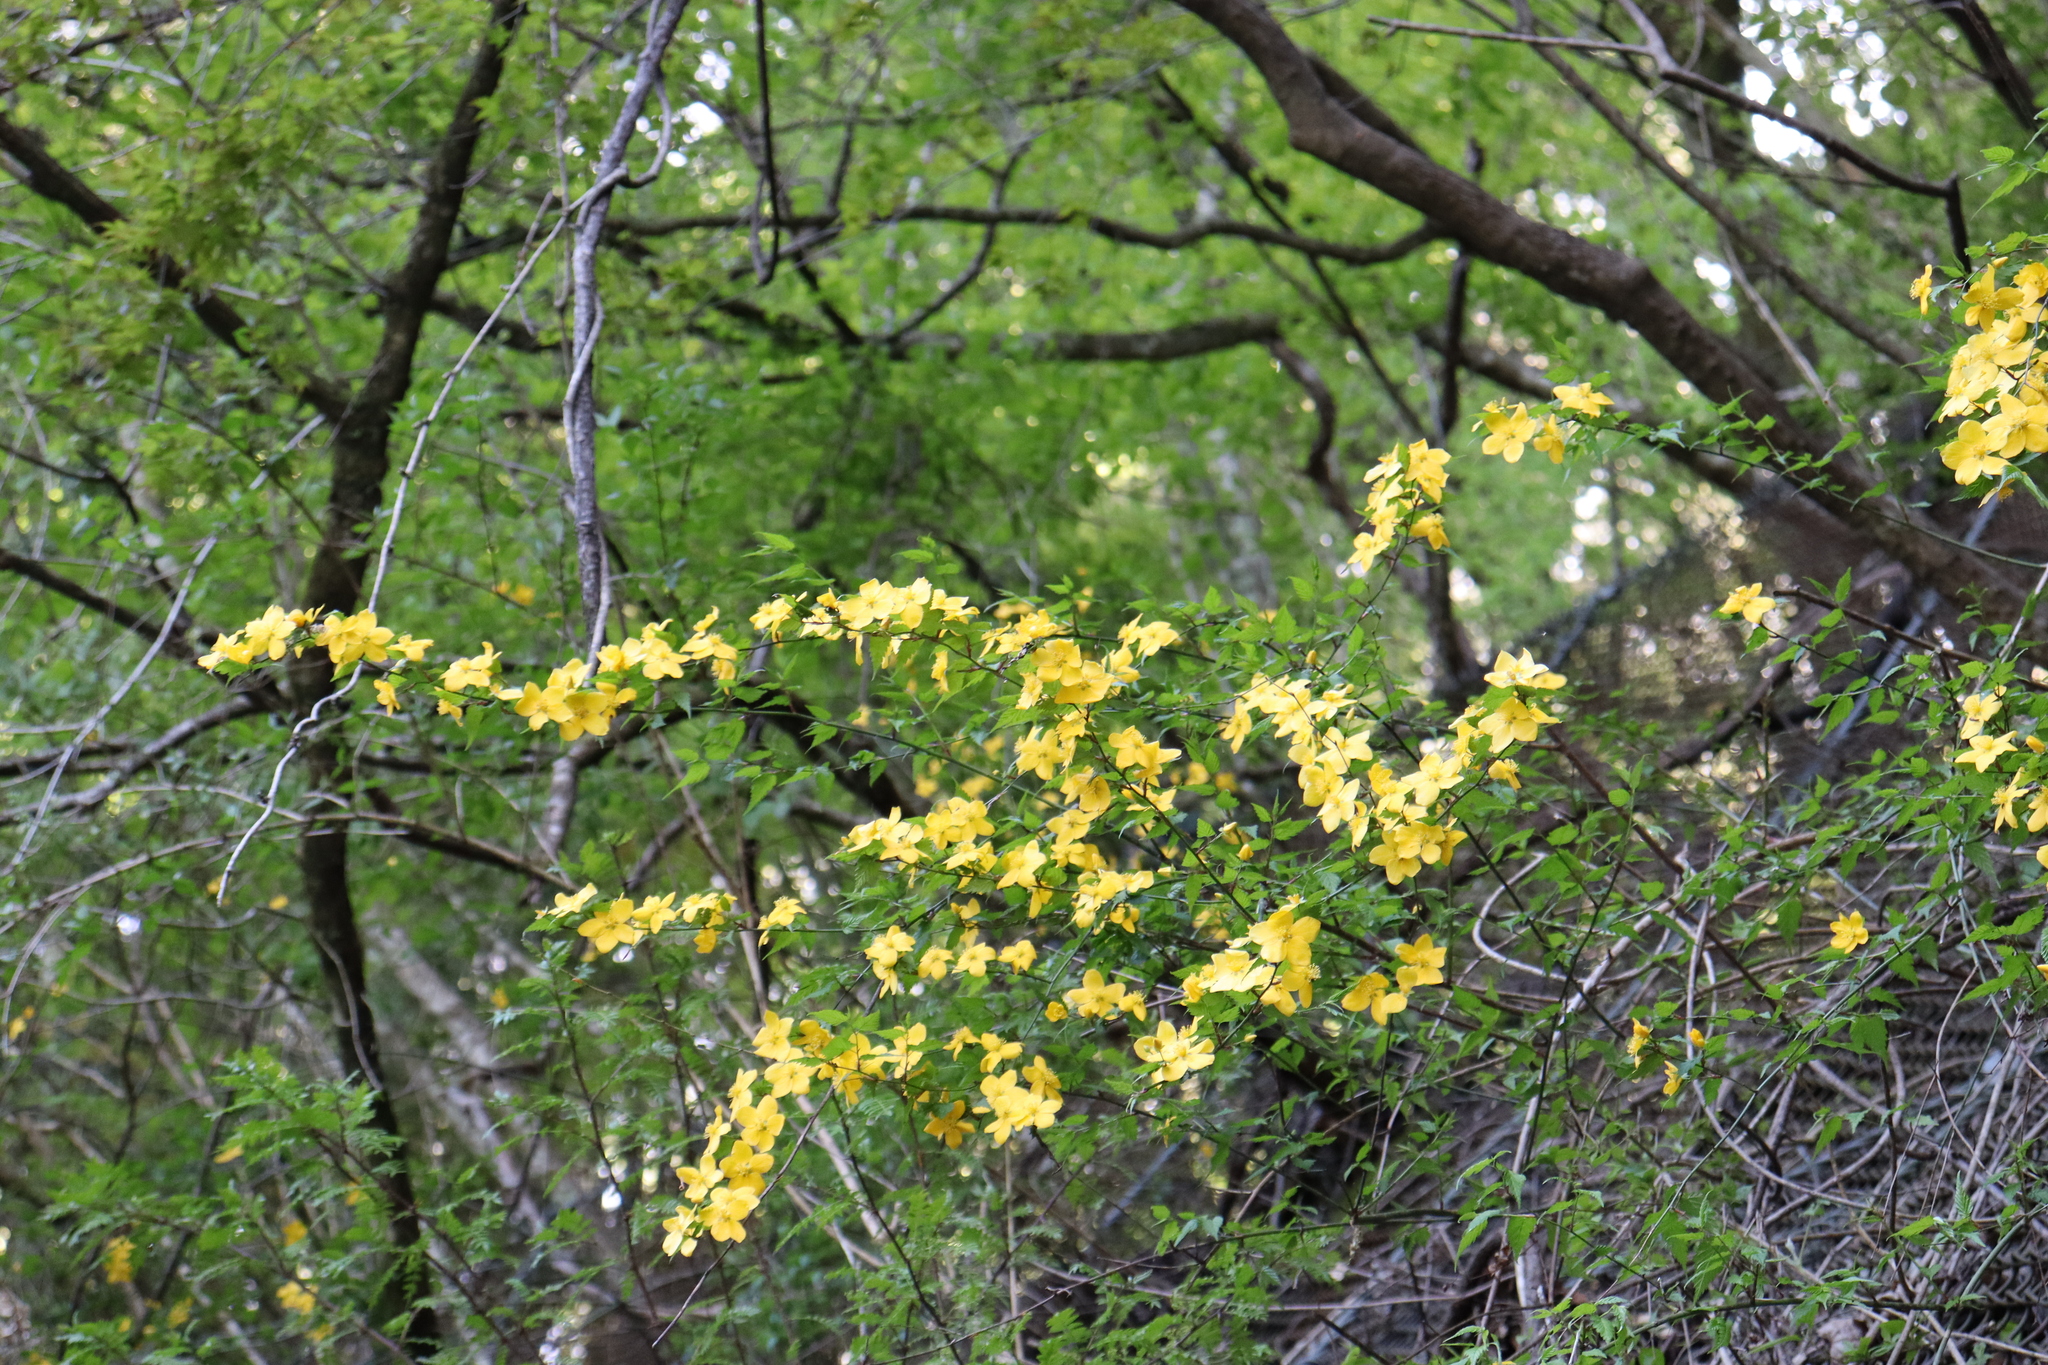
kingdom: Plantae
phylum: Tracheophyta
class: Magnoliopsida
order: Rosales
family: Rosaceae
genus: Kerria
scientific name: Kerria japonica
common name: Japanese kerria
